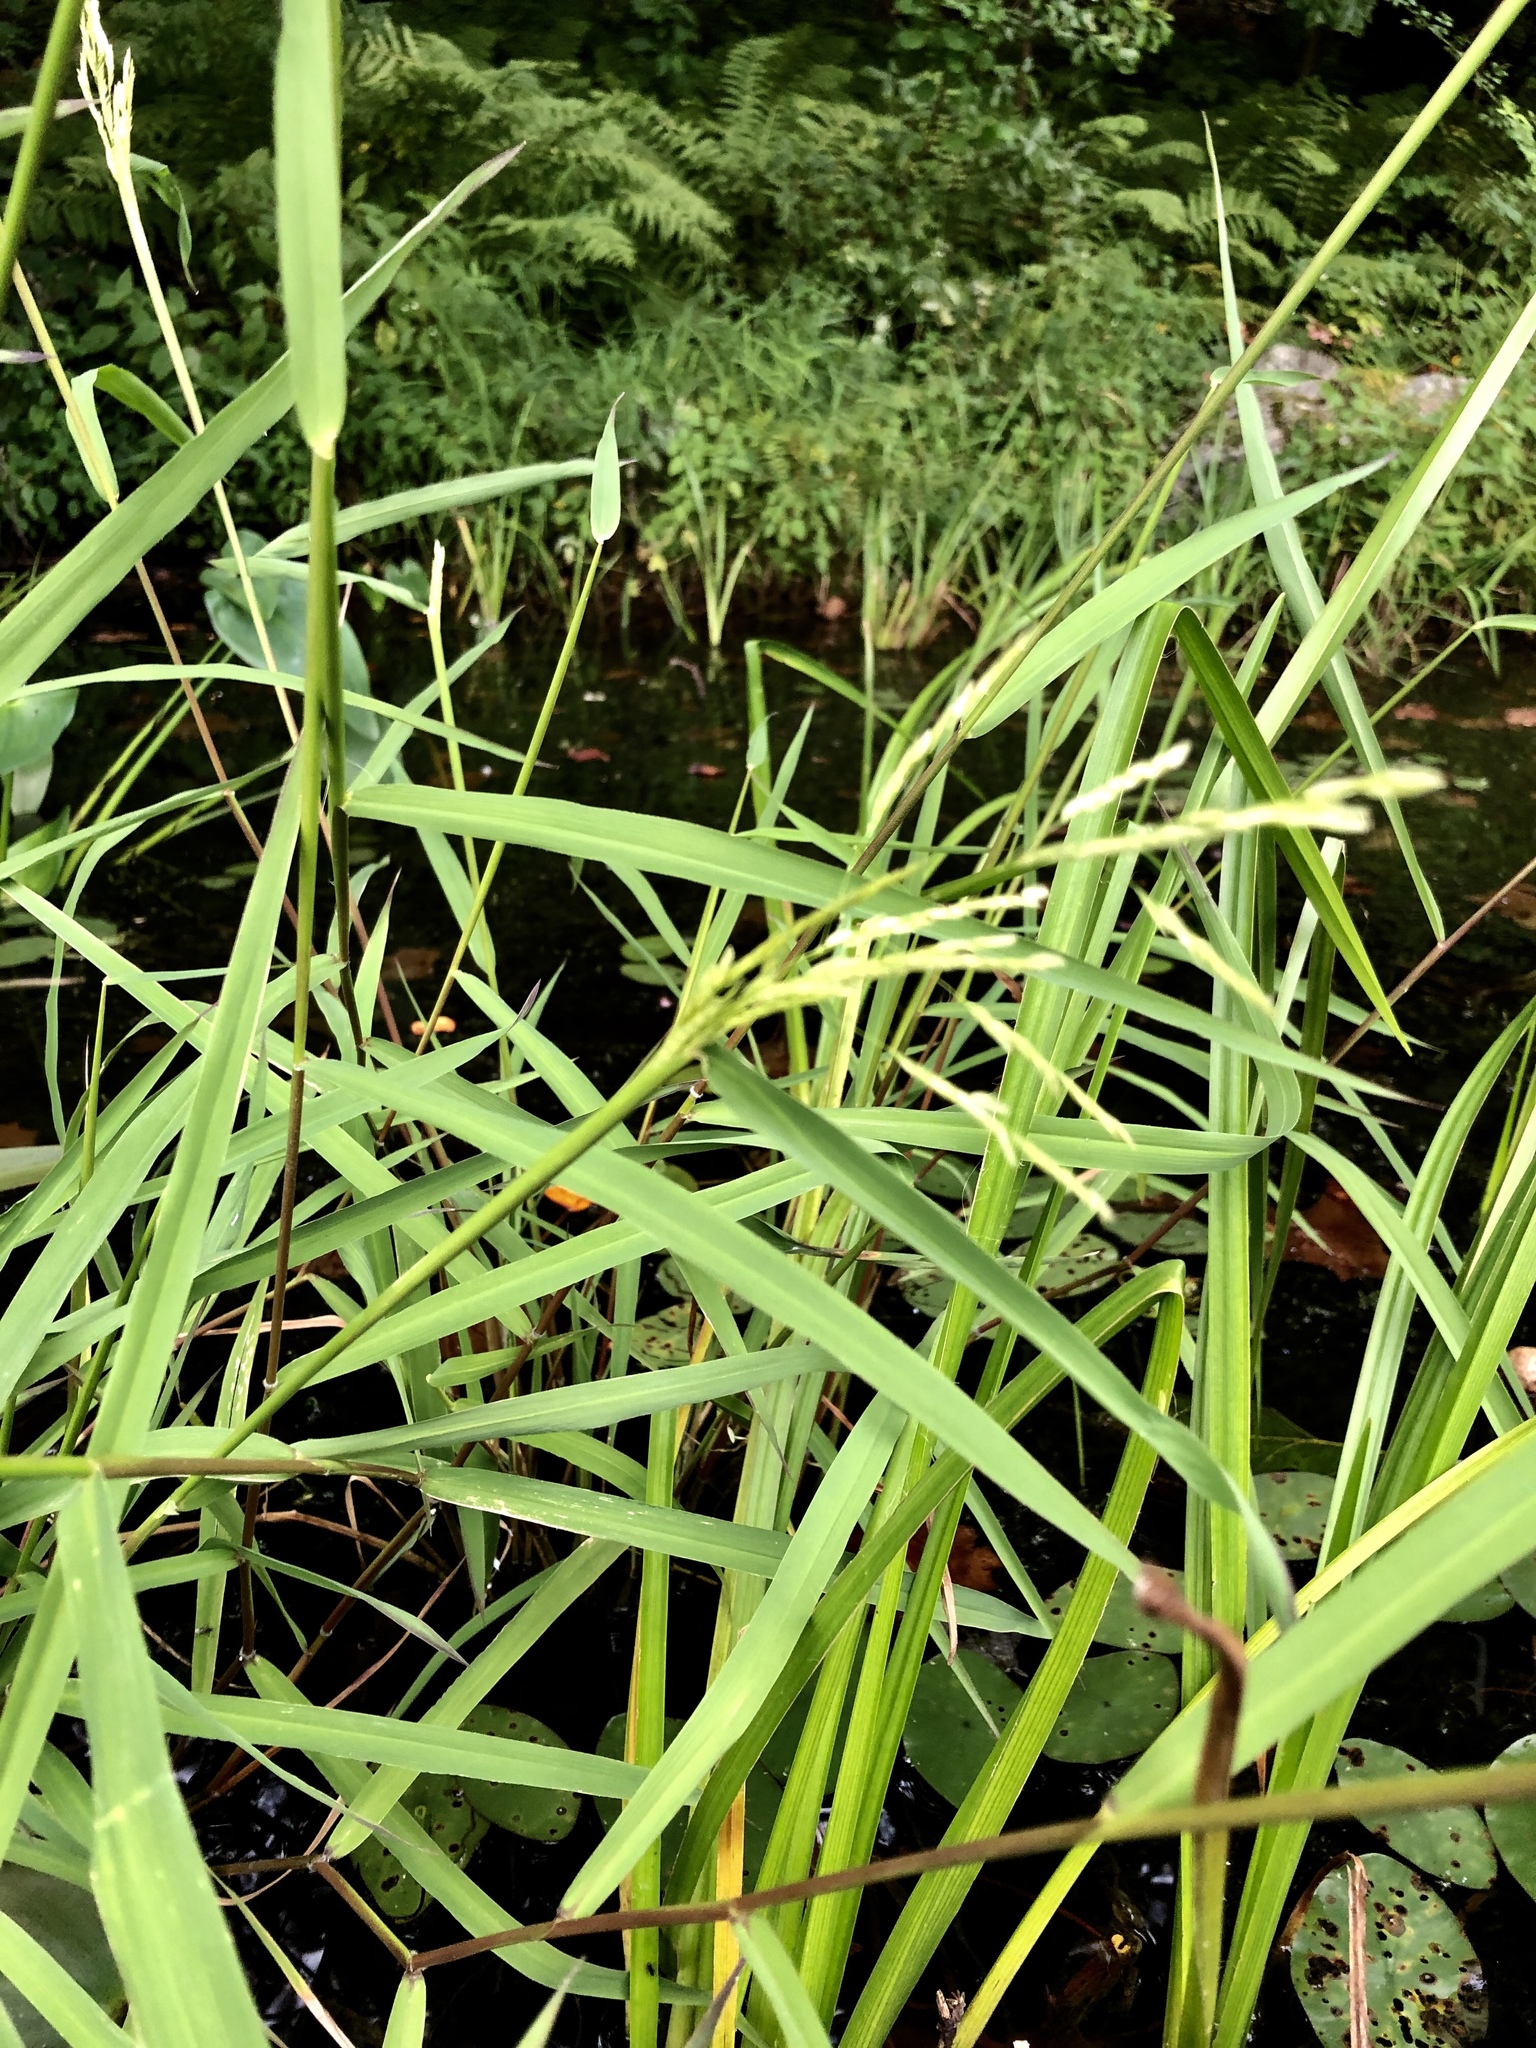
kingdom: Plantae
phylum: Tracheophyta
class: Liliopsida
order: Poales
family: Poaceae
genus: Leersia
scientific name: Leersia oryzoides
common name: Cut-grass
